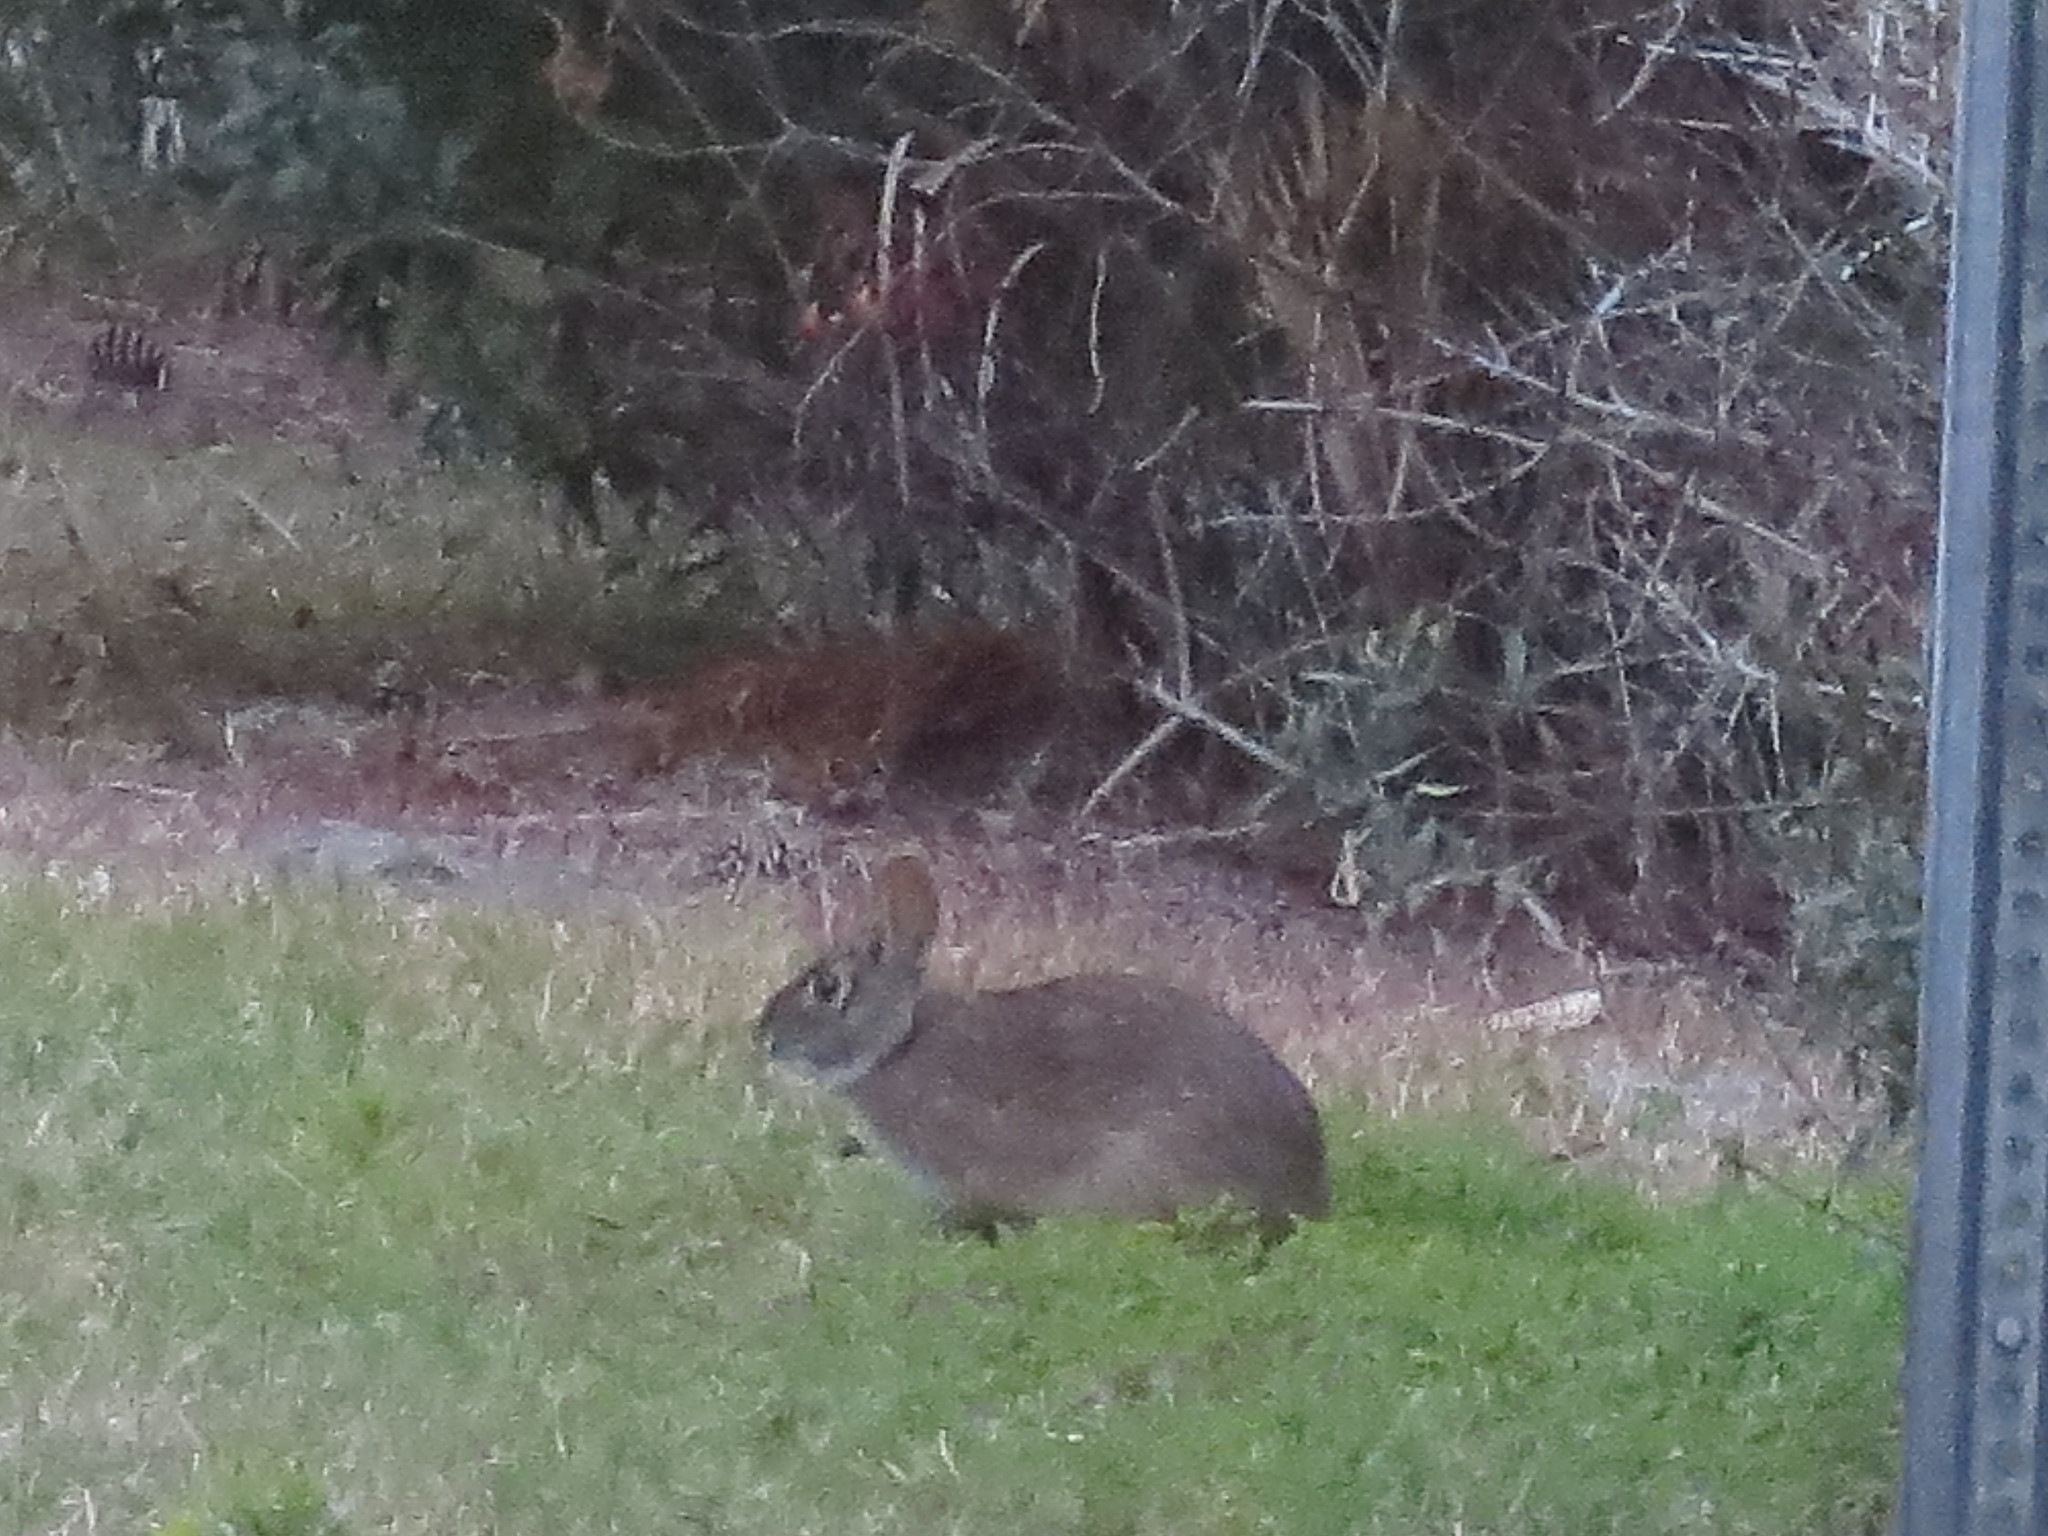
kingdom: Animalia
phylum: Chordata
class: Mammalia
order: Lagomorpha
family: Leporidae
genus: Sylvilagus
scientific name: Sylvilagus palustris
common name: Marsh rabbit
